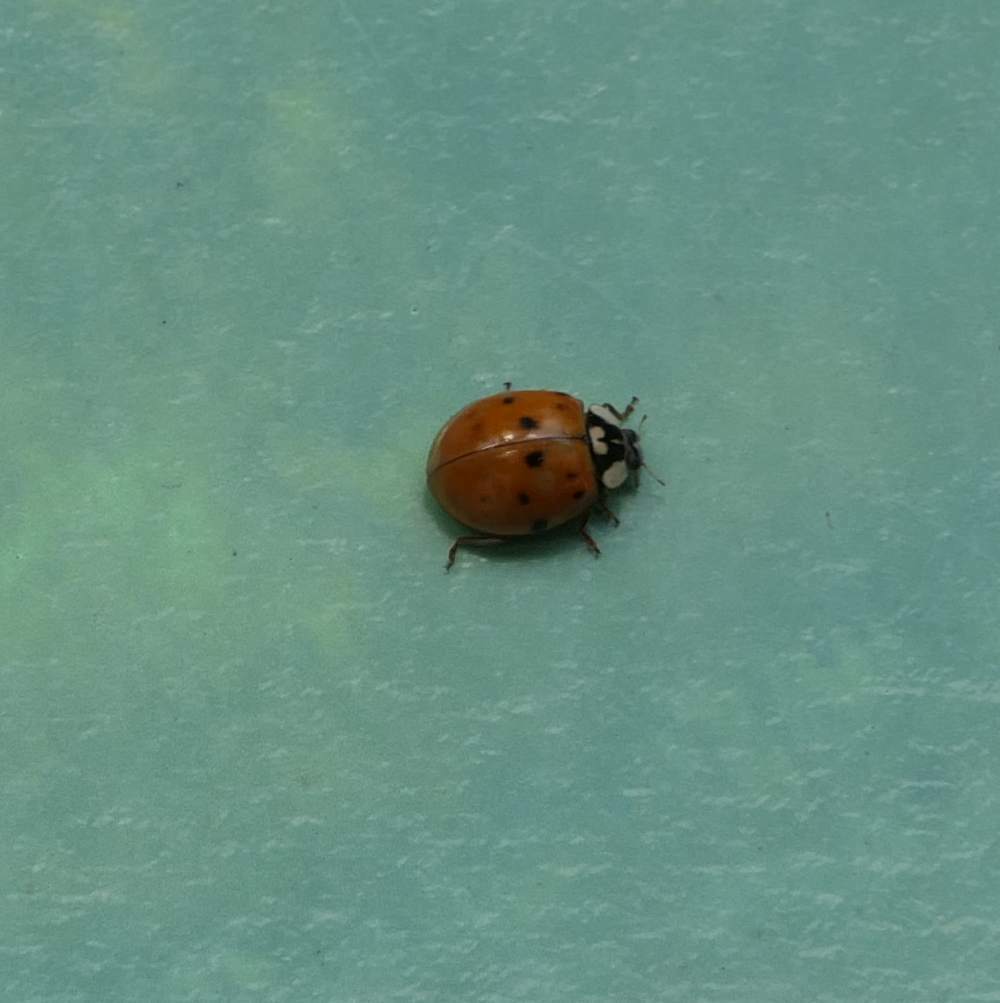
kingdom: Animalia
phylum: Arthropoda
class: Insecta
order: Coleoptera
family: Coccinellidae
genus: Harmonia
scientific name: Harmonia axyridis
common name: Harlequin ladybird
